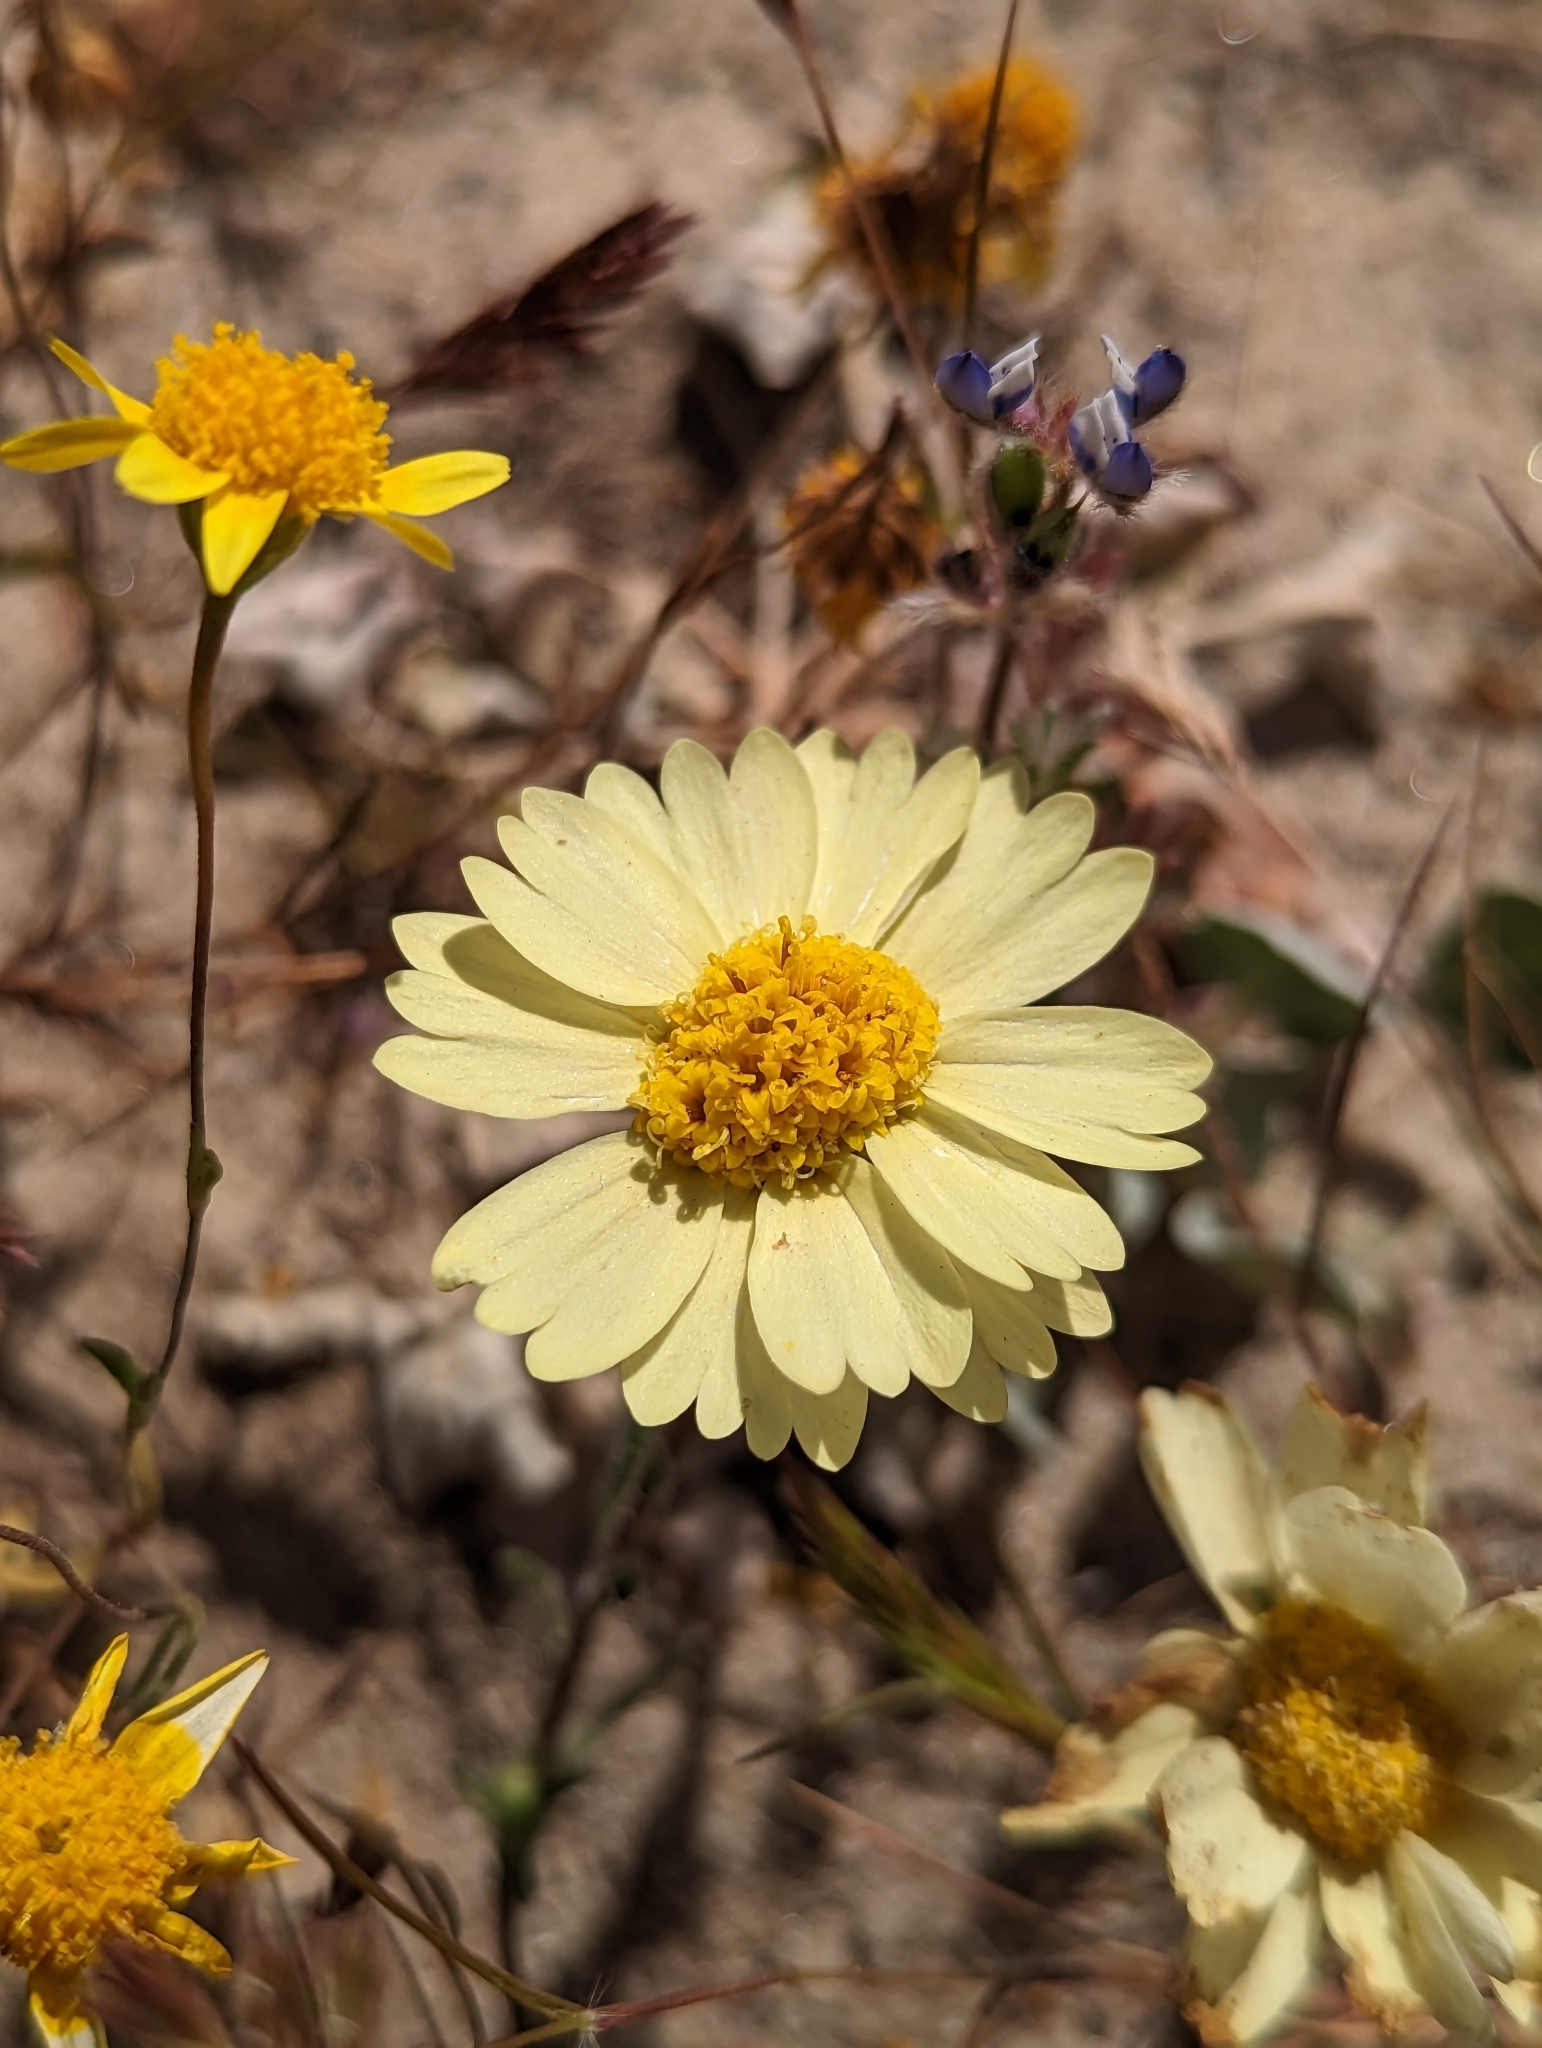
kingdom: Plantae
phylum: Tracheophyta
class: Magnoliopsida
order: Asterales
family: Asteraceae
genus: Layia
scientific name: Layia glandulosa
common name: White layia
